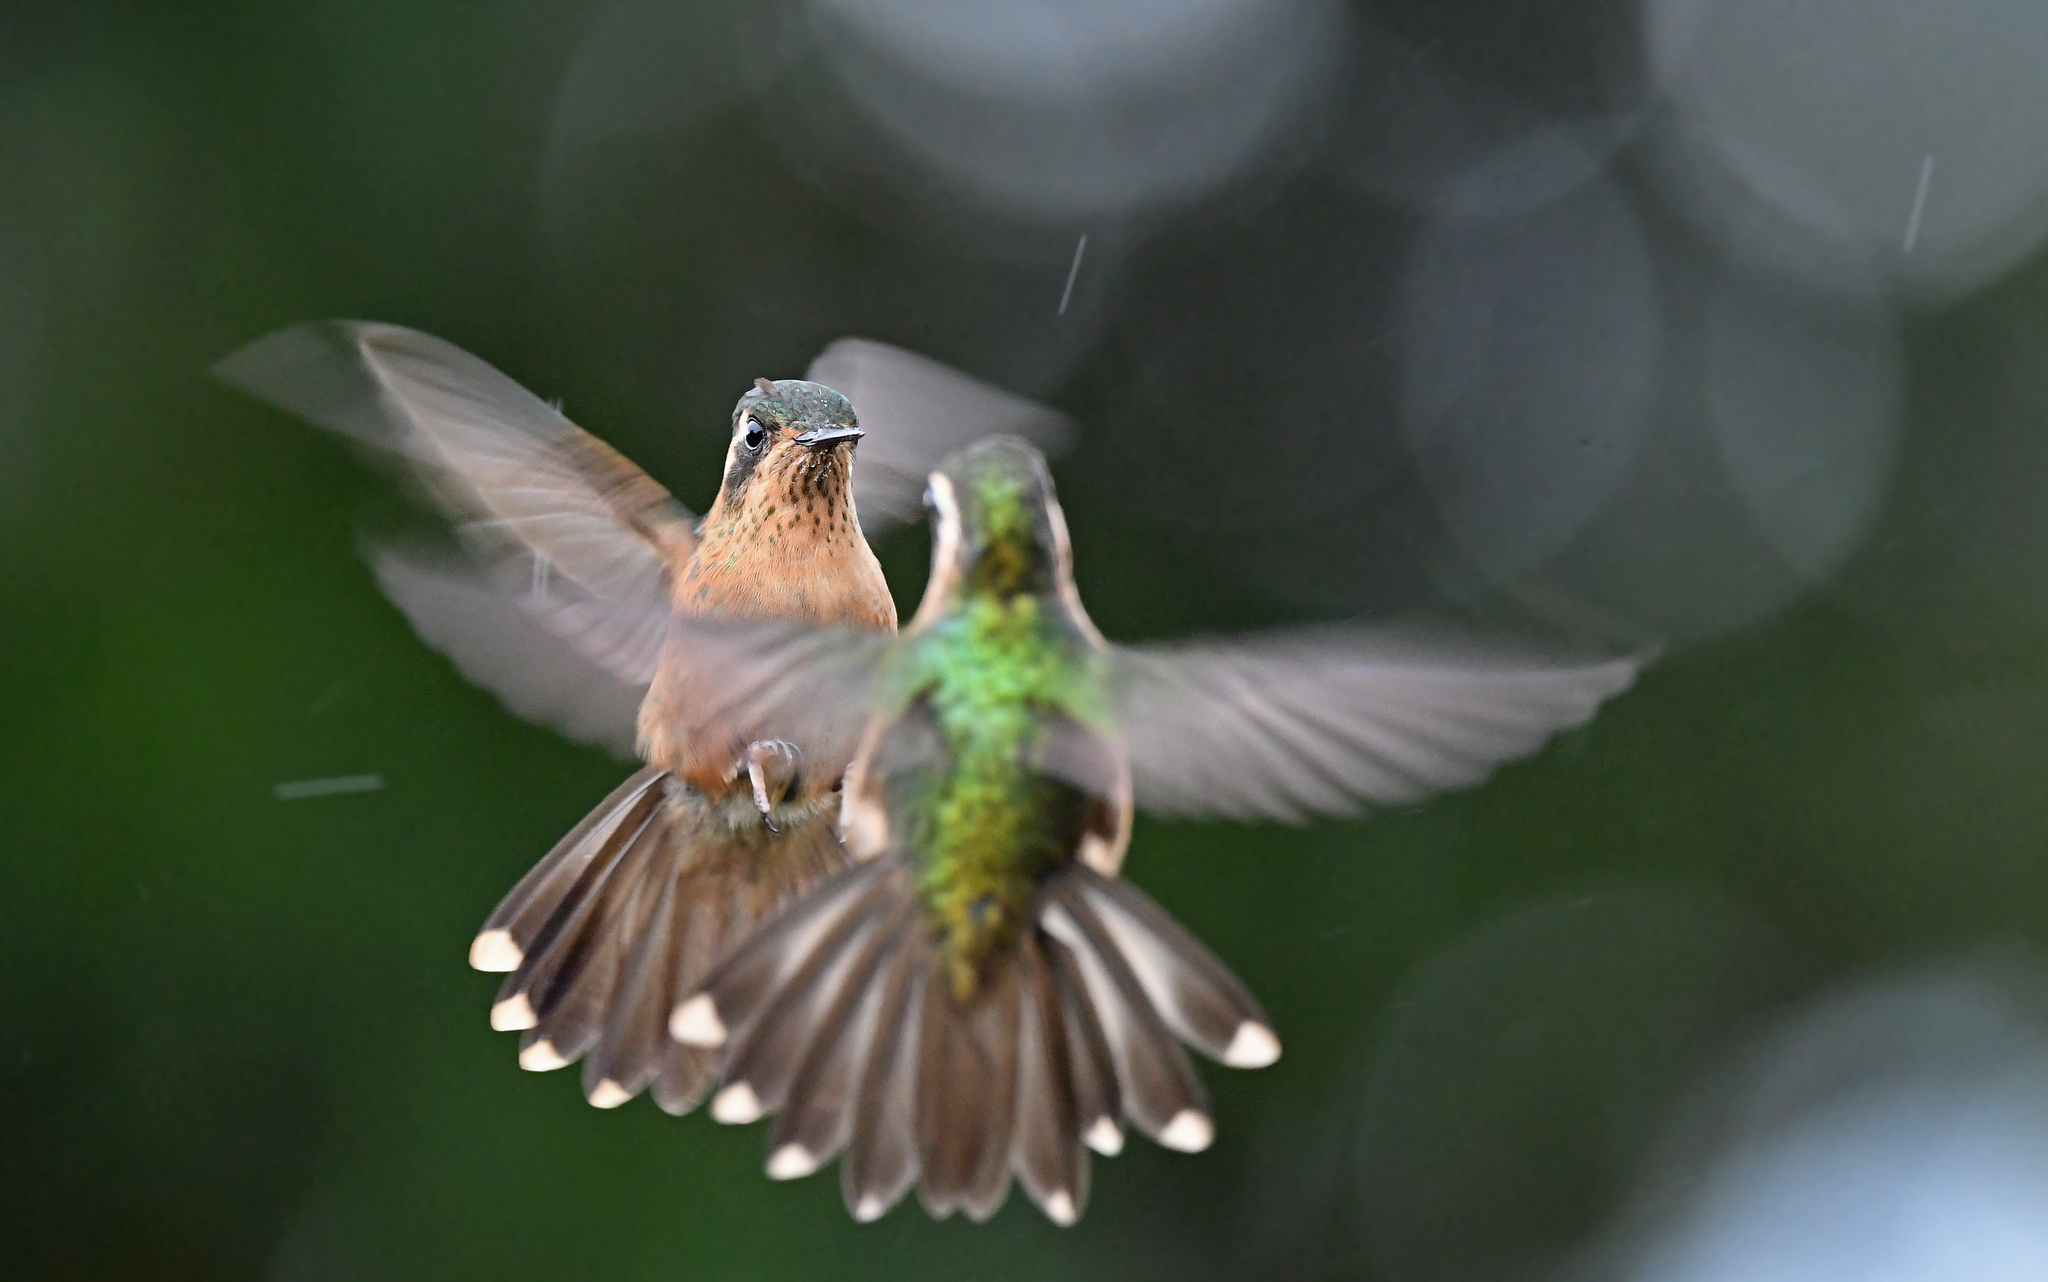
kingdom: Animalia
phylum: Chordata
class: Aves
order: Apodiformes
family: Trochilidae
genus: Adelomyia
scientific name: Adelomyia melanogenys
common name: Speckled hummingbird
